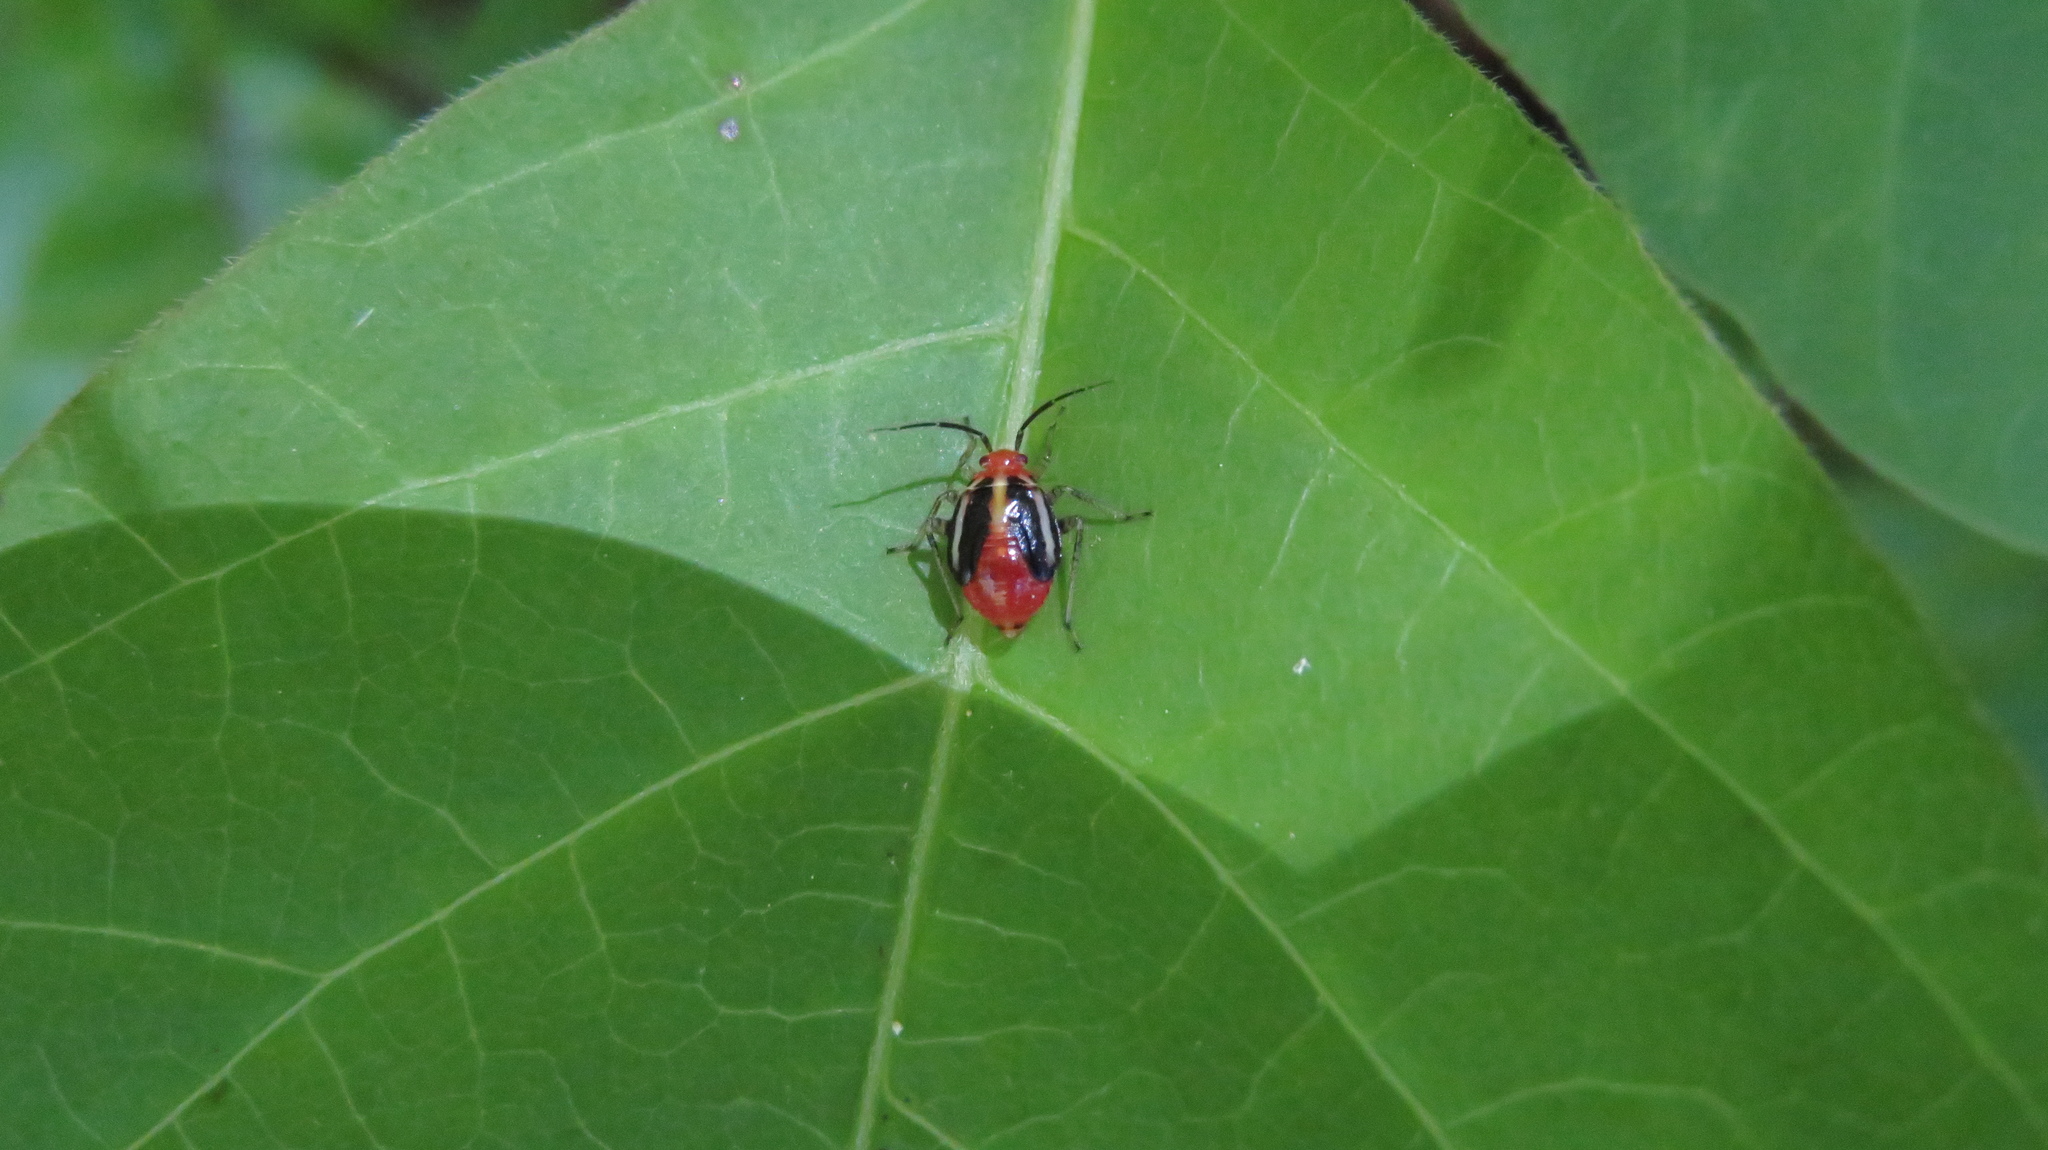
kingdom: Animalia
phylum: Arthropoda
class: Insecta
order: Hemiptera
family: Miridae
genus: Poecilocapsus
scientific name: Poecilocapsus lineatus
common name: Four-lined plant bug
